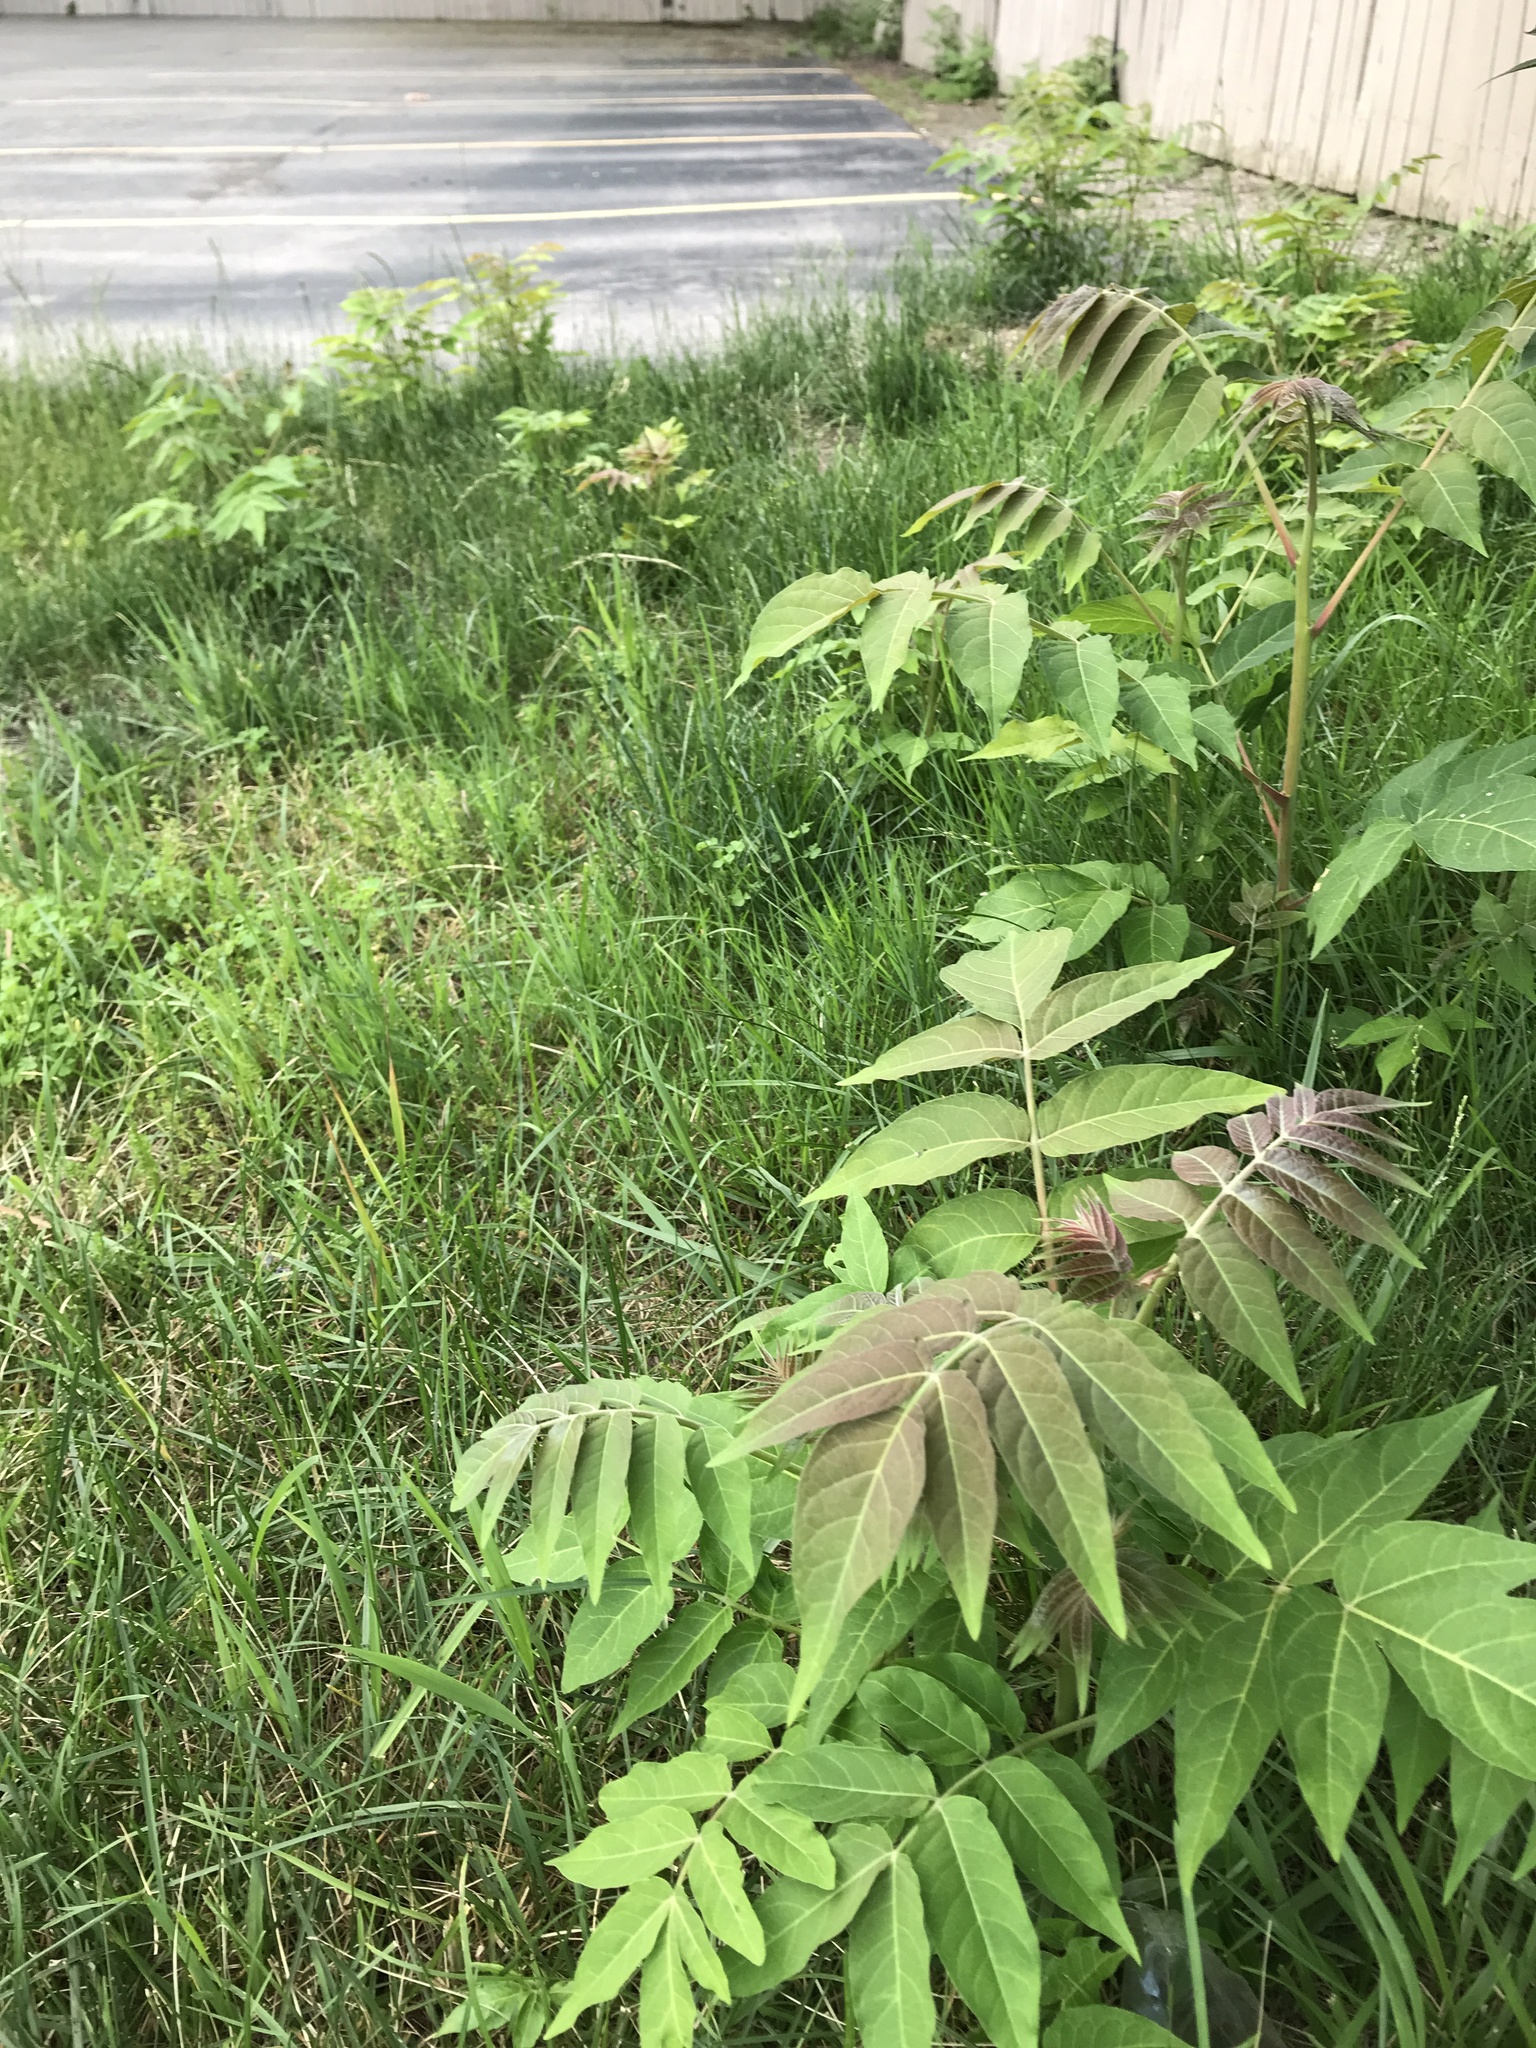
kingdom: Plantae
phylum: Tracheophyta
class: Magnoliopsida
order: Sapindales
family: Simaroubaceae
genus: Ailanthus
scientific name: Ailanthus altissima
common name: Tree-of-heaven
